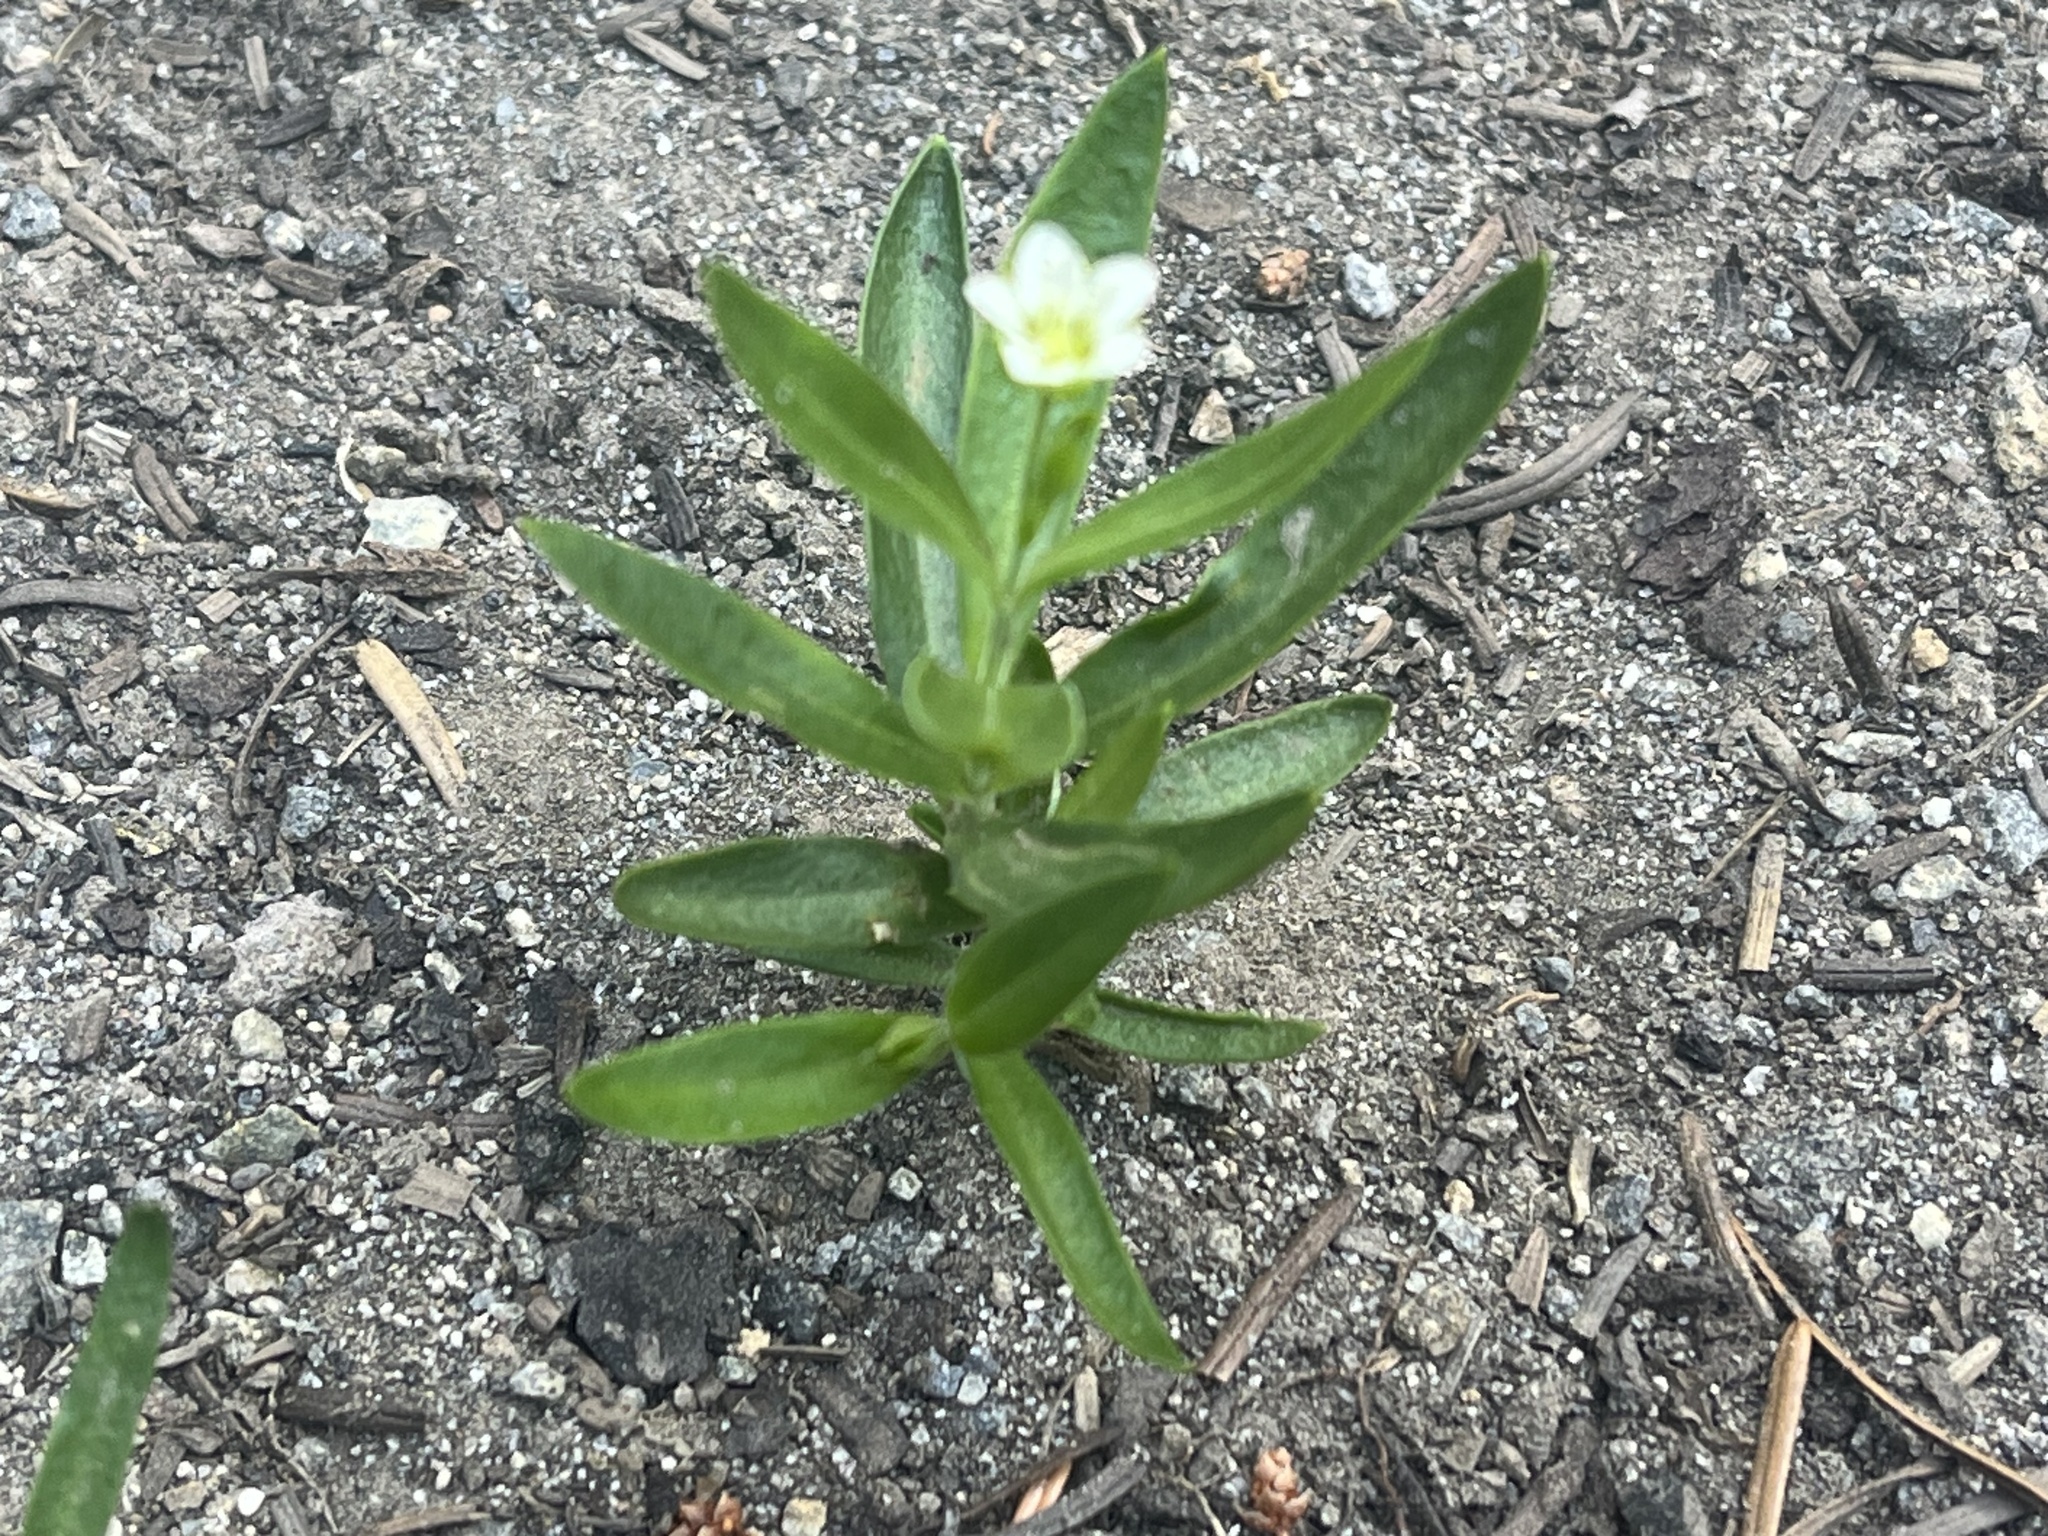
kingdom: Plantae
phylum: Tracheophyta
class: Magnoliopsida
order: Caryophyllales
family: Caryophyllaceae
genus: Moehringia
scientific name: Moehringia macrophylla
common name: Big-leaf sandwort
